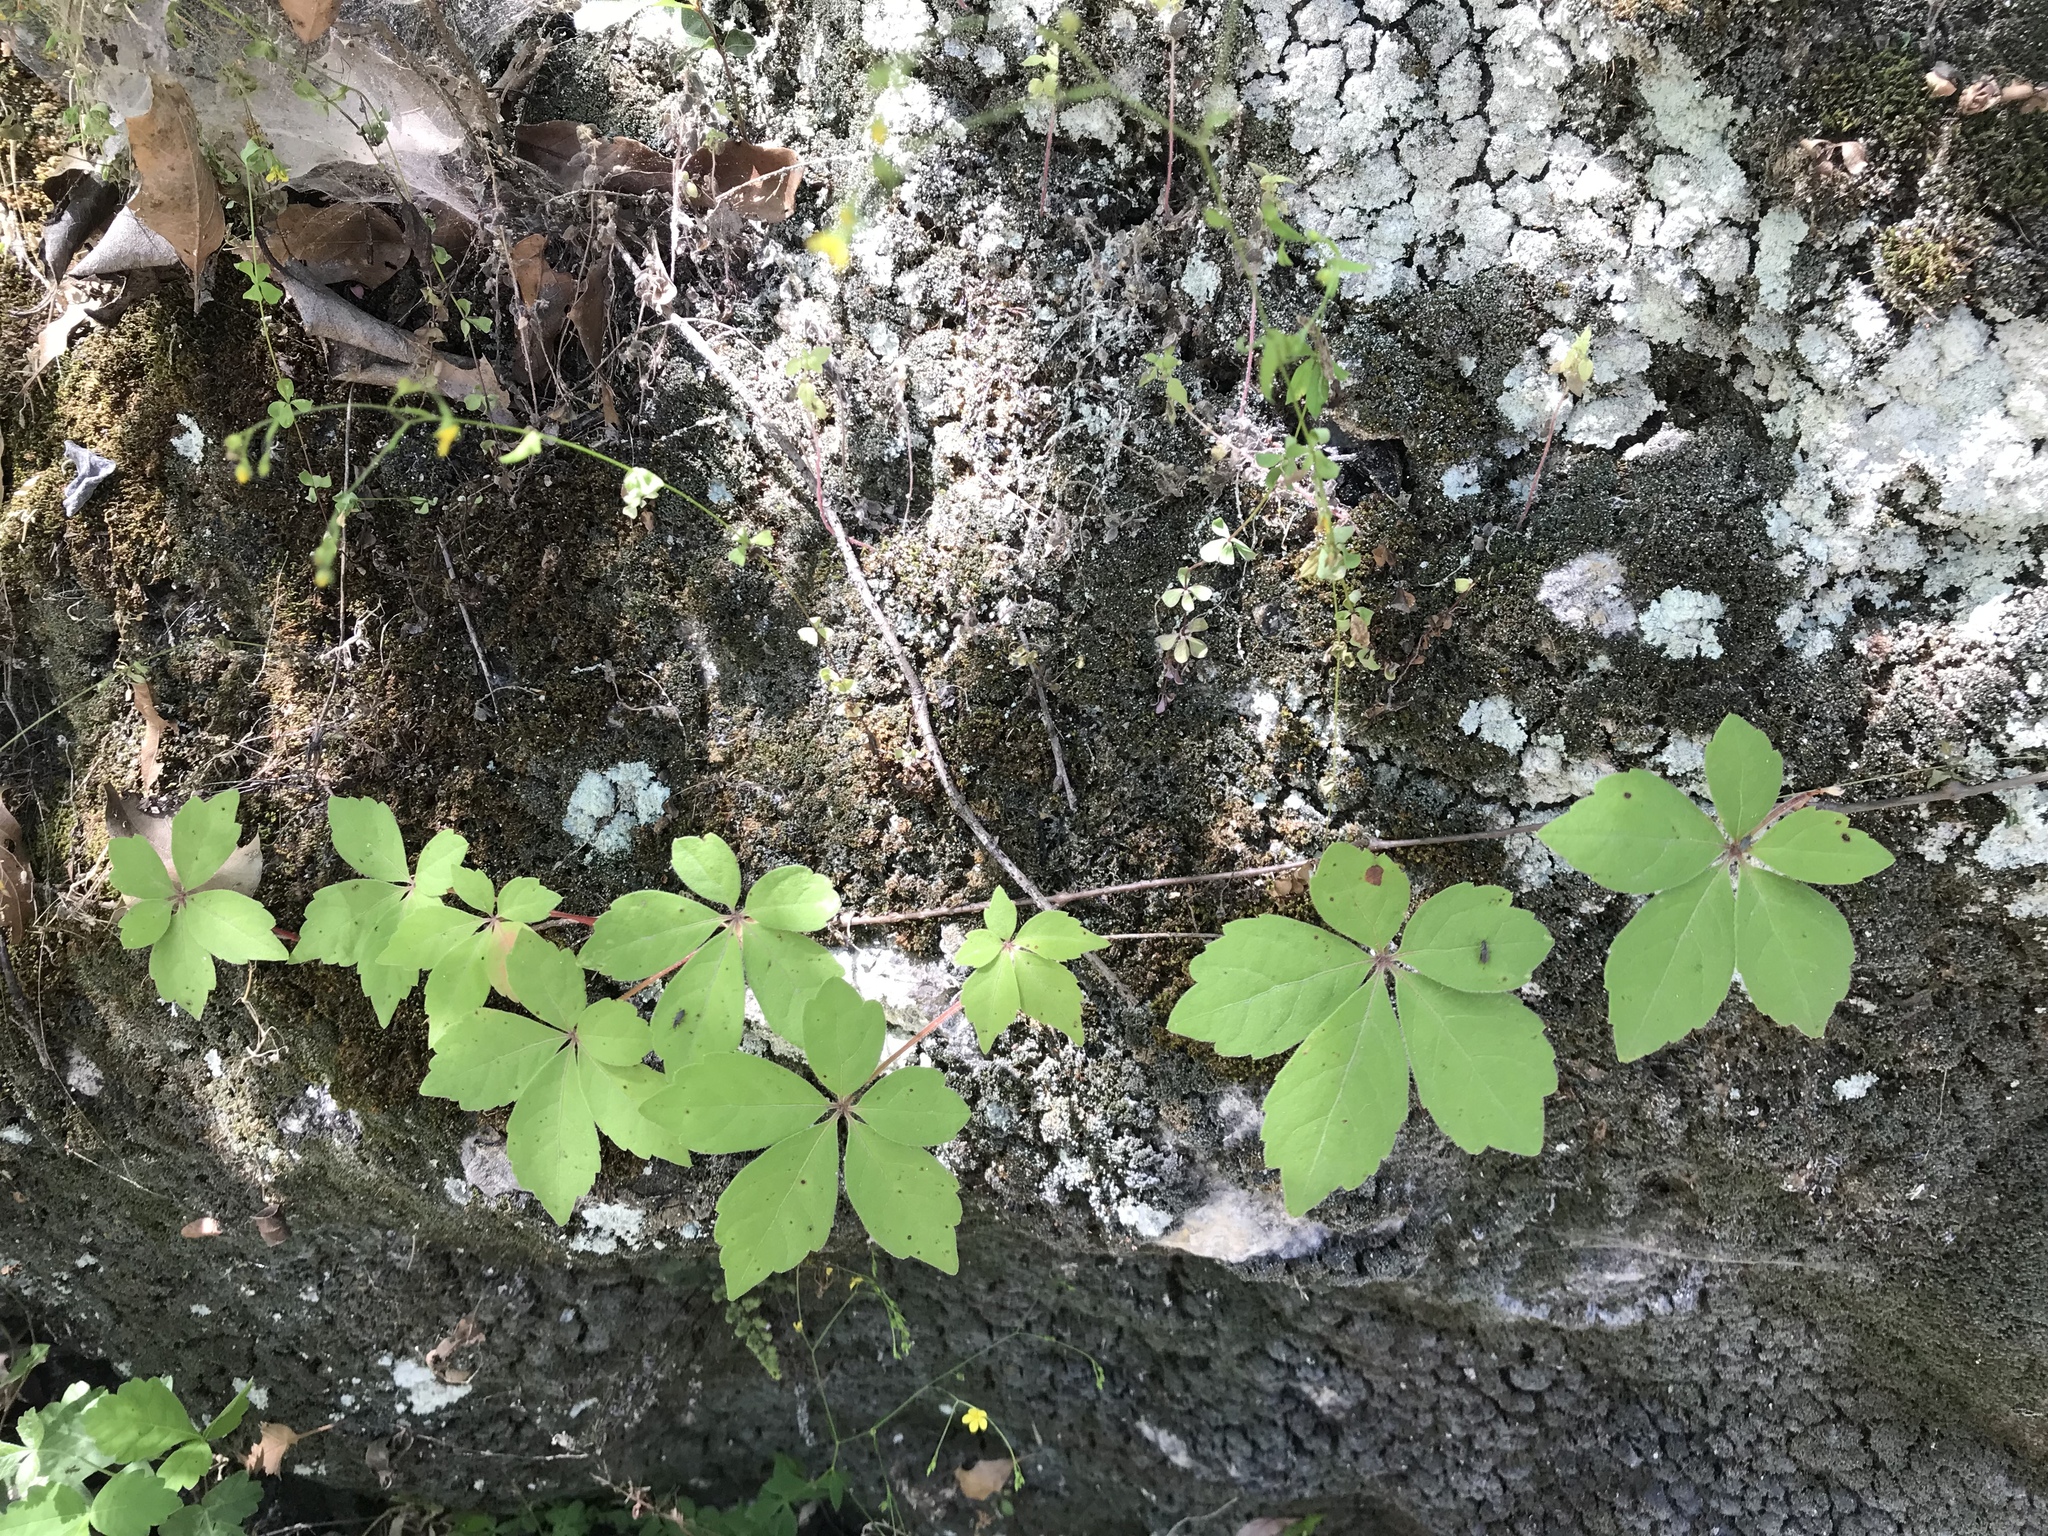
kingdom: Plantae
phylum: Tracheophyta
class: Magnoliopsida
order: Vitales
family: Vitaceae
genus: Parthenocissus
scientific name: Parthenocissus quinquefolia
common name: Virginia-creeper
